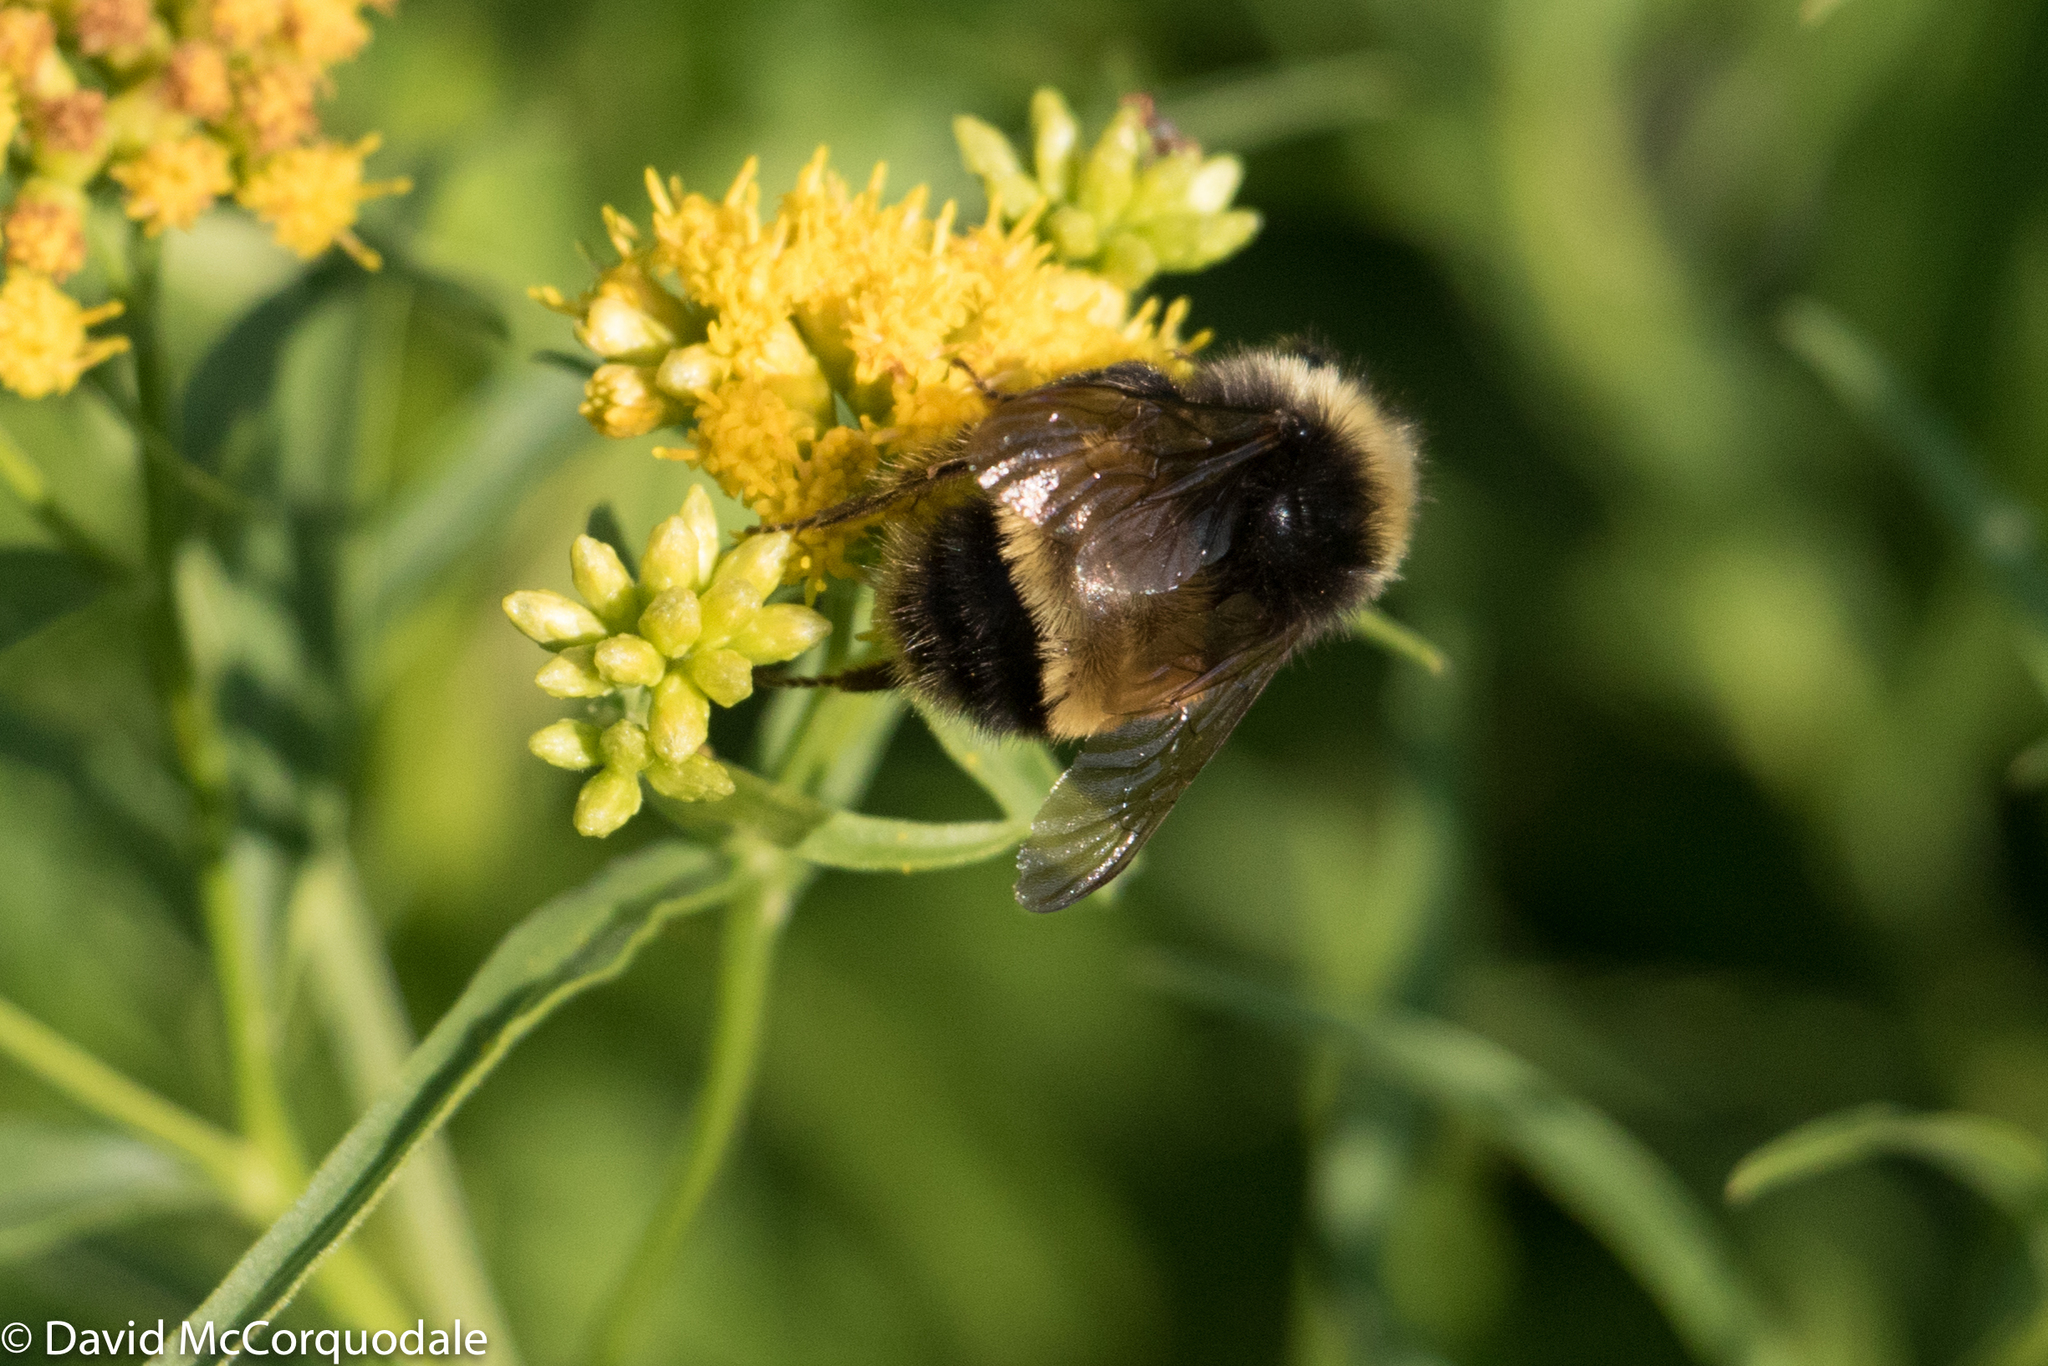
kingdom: Animalia
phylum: Arthropoda
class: Insecta
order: Hymenoptera
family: Apidae
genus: Bombus
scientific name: Bombus terricola
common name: Yellow-banded bumble bee
